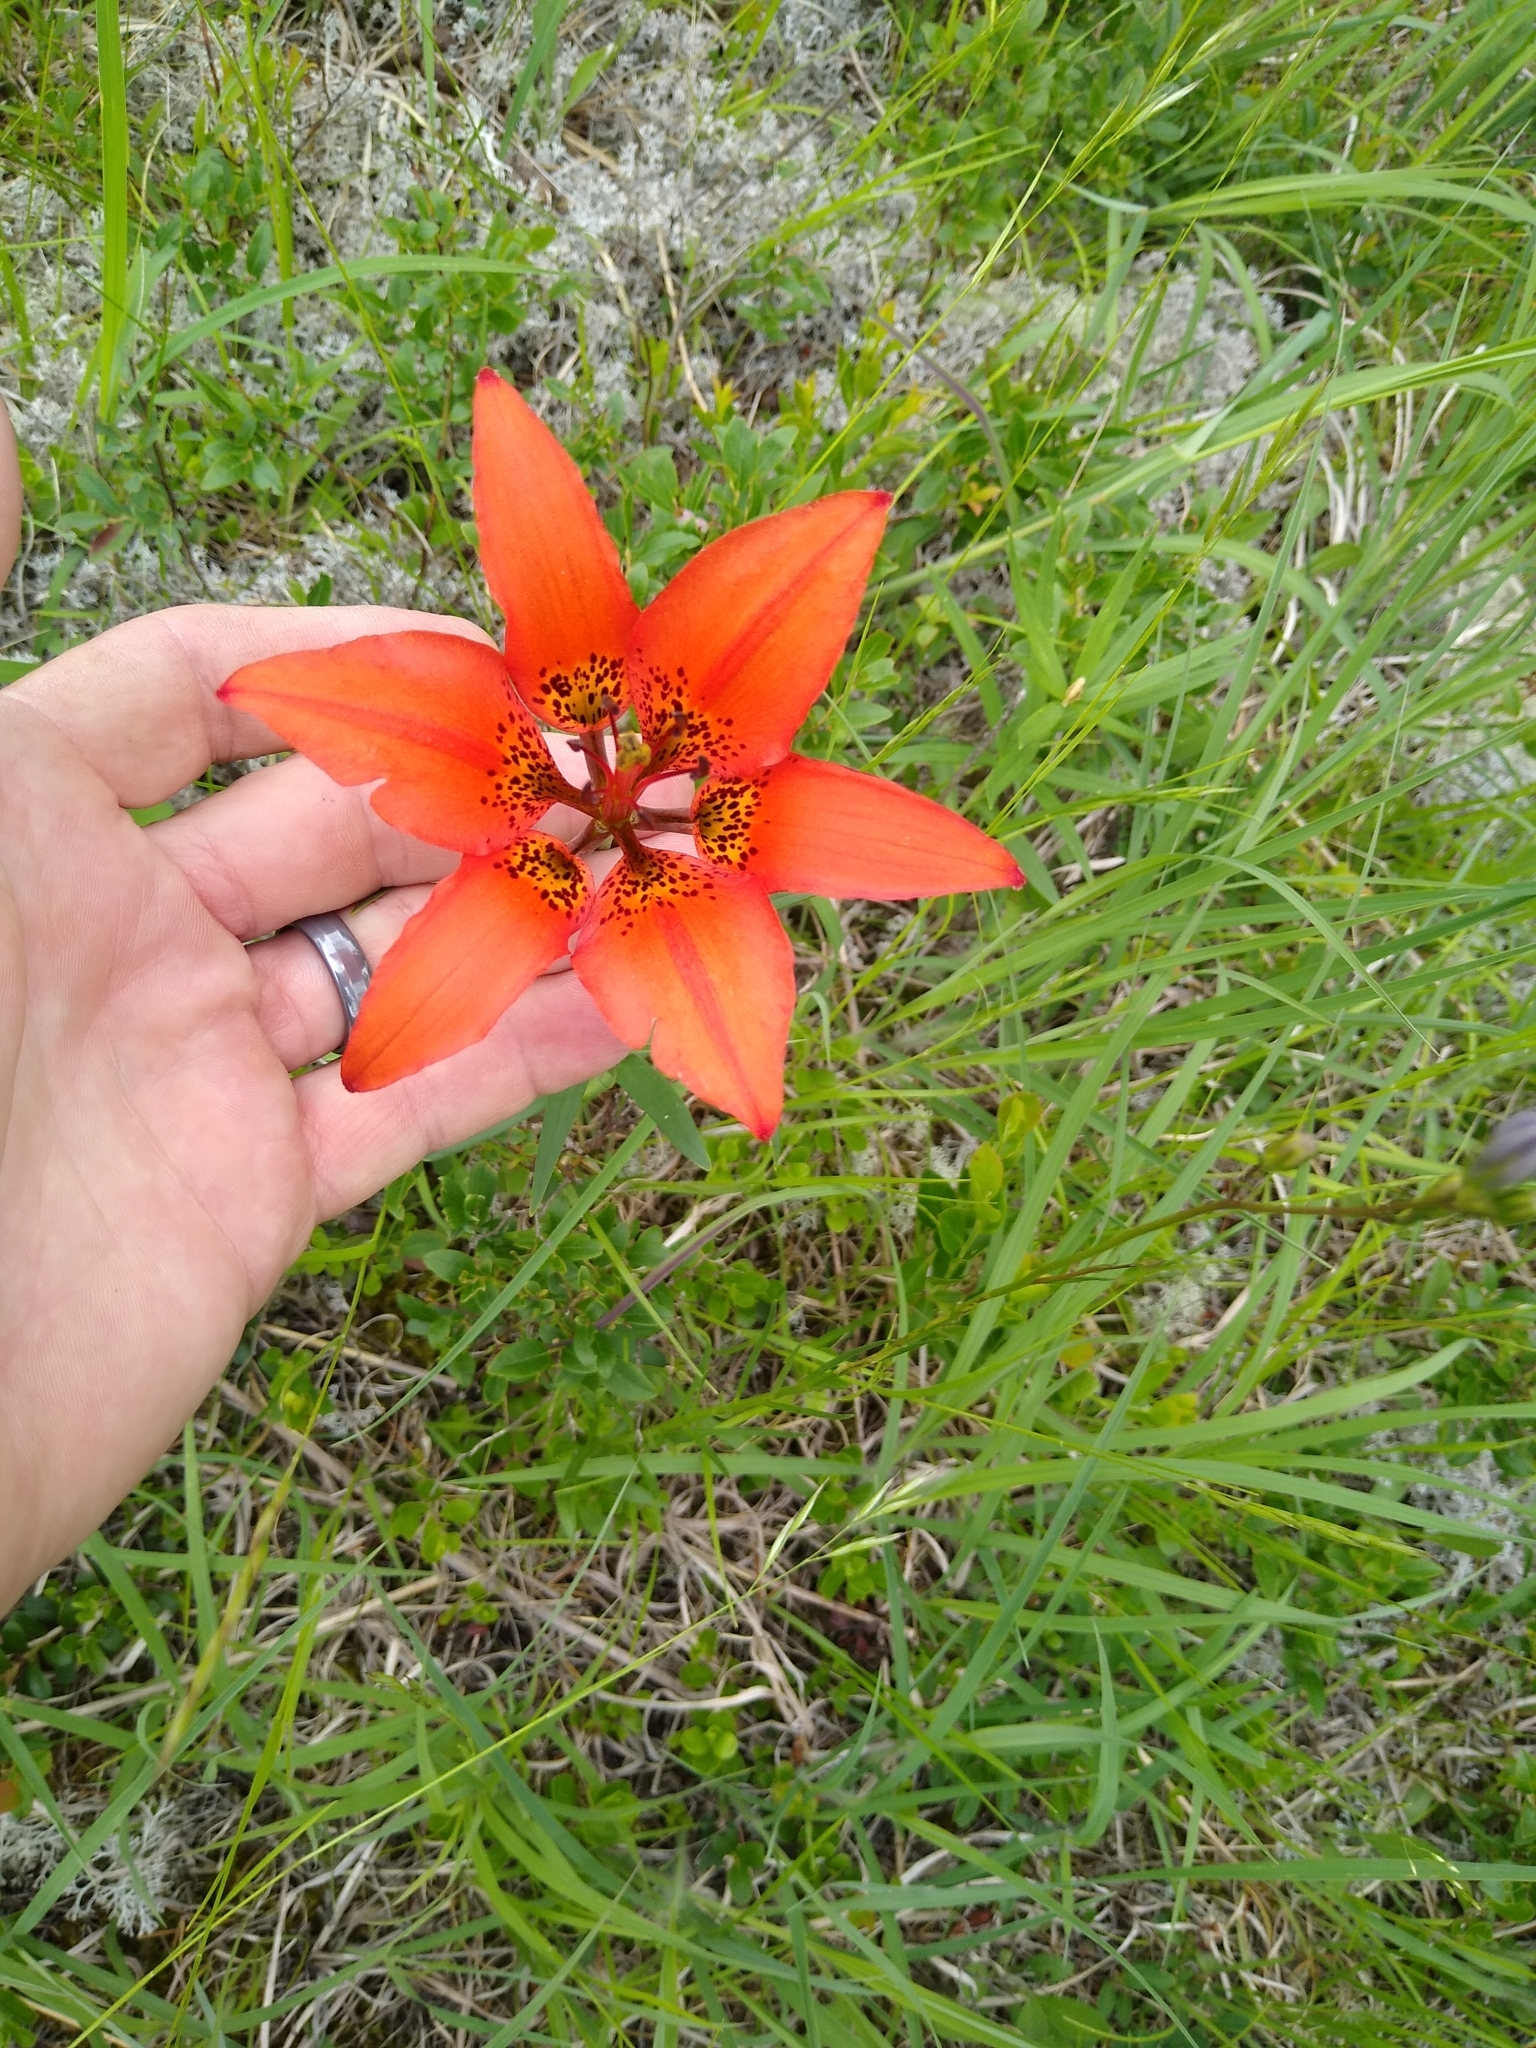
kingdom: Plantae
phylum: Tracheophyta
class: Liliopsida
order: Liliales
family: Liliaceae
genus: Lilium
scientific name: Lilium philadelphicum
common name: Red lily
